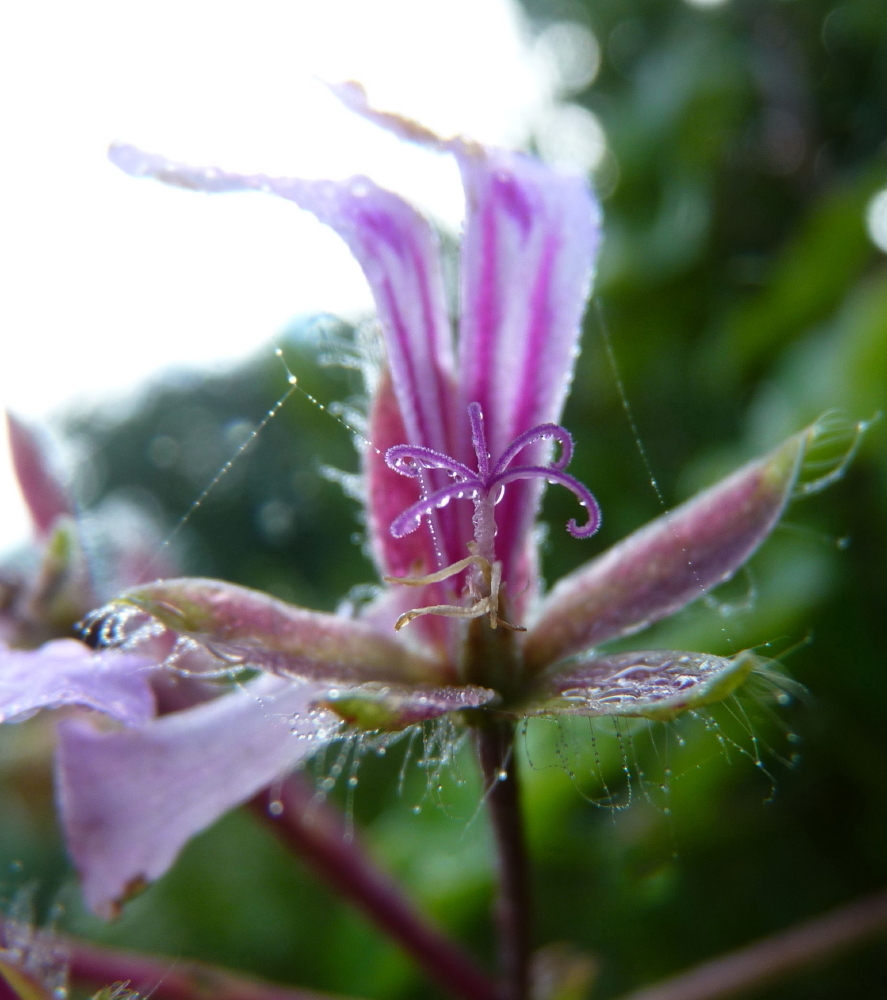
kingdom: Plantae
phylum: Tracheophyta
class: Magnoliopsida
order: Geraniales
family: Geraniaceae
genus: Pelargonium
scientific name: Pelargonium peltatum
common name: Ivyleaf geranium
